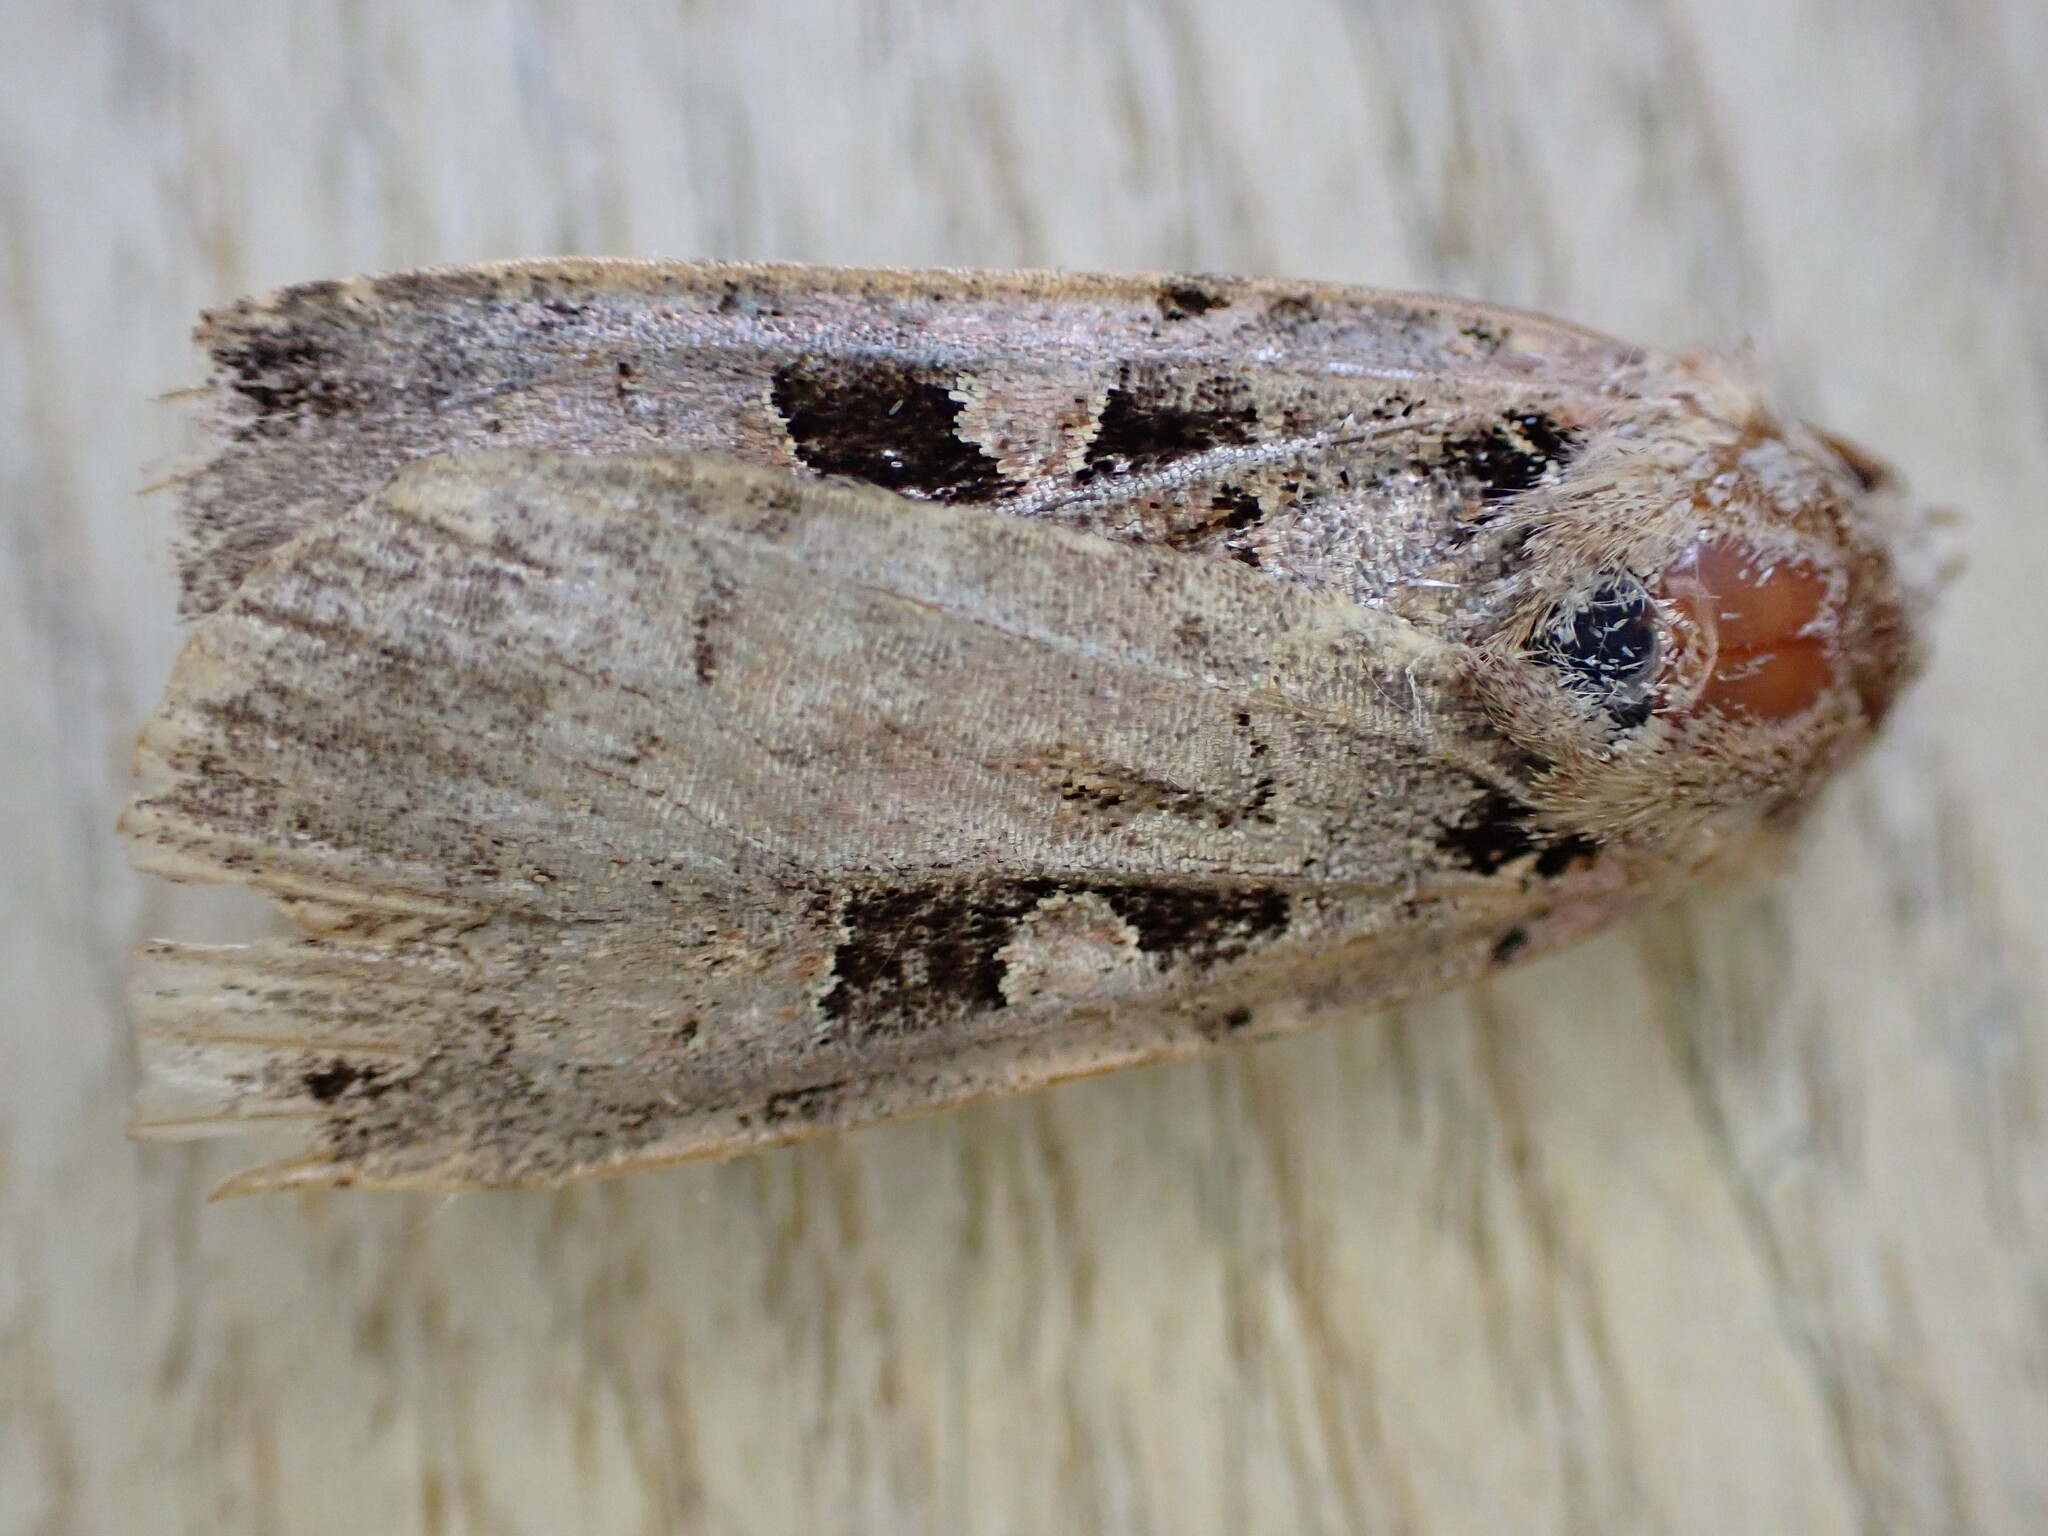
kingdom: Animalia
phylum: Arthropoda
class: Insecta
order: Lepidoptera
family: Noctuidae
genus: Xestia
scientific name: Xestia triangulum
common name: Double square-spot
